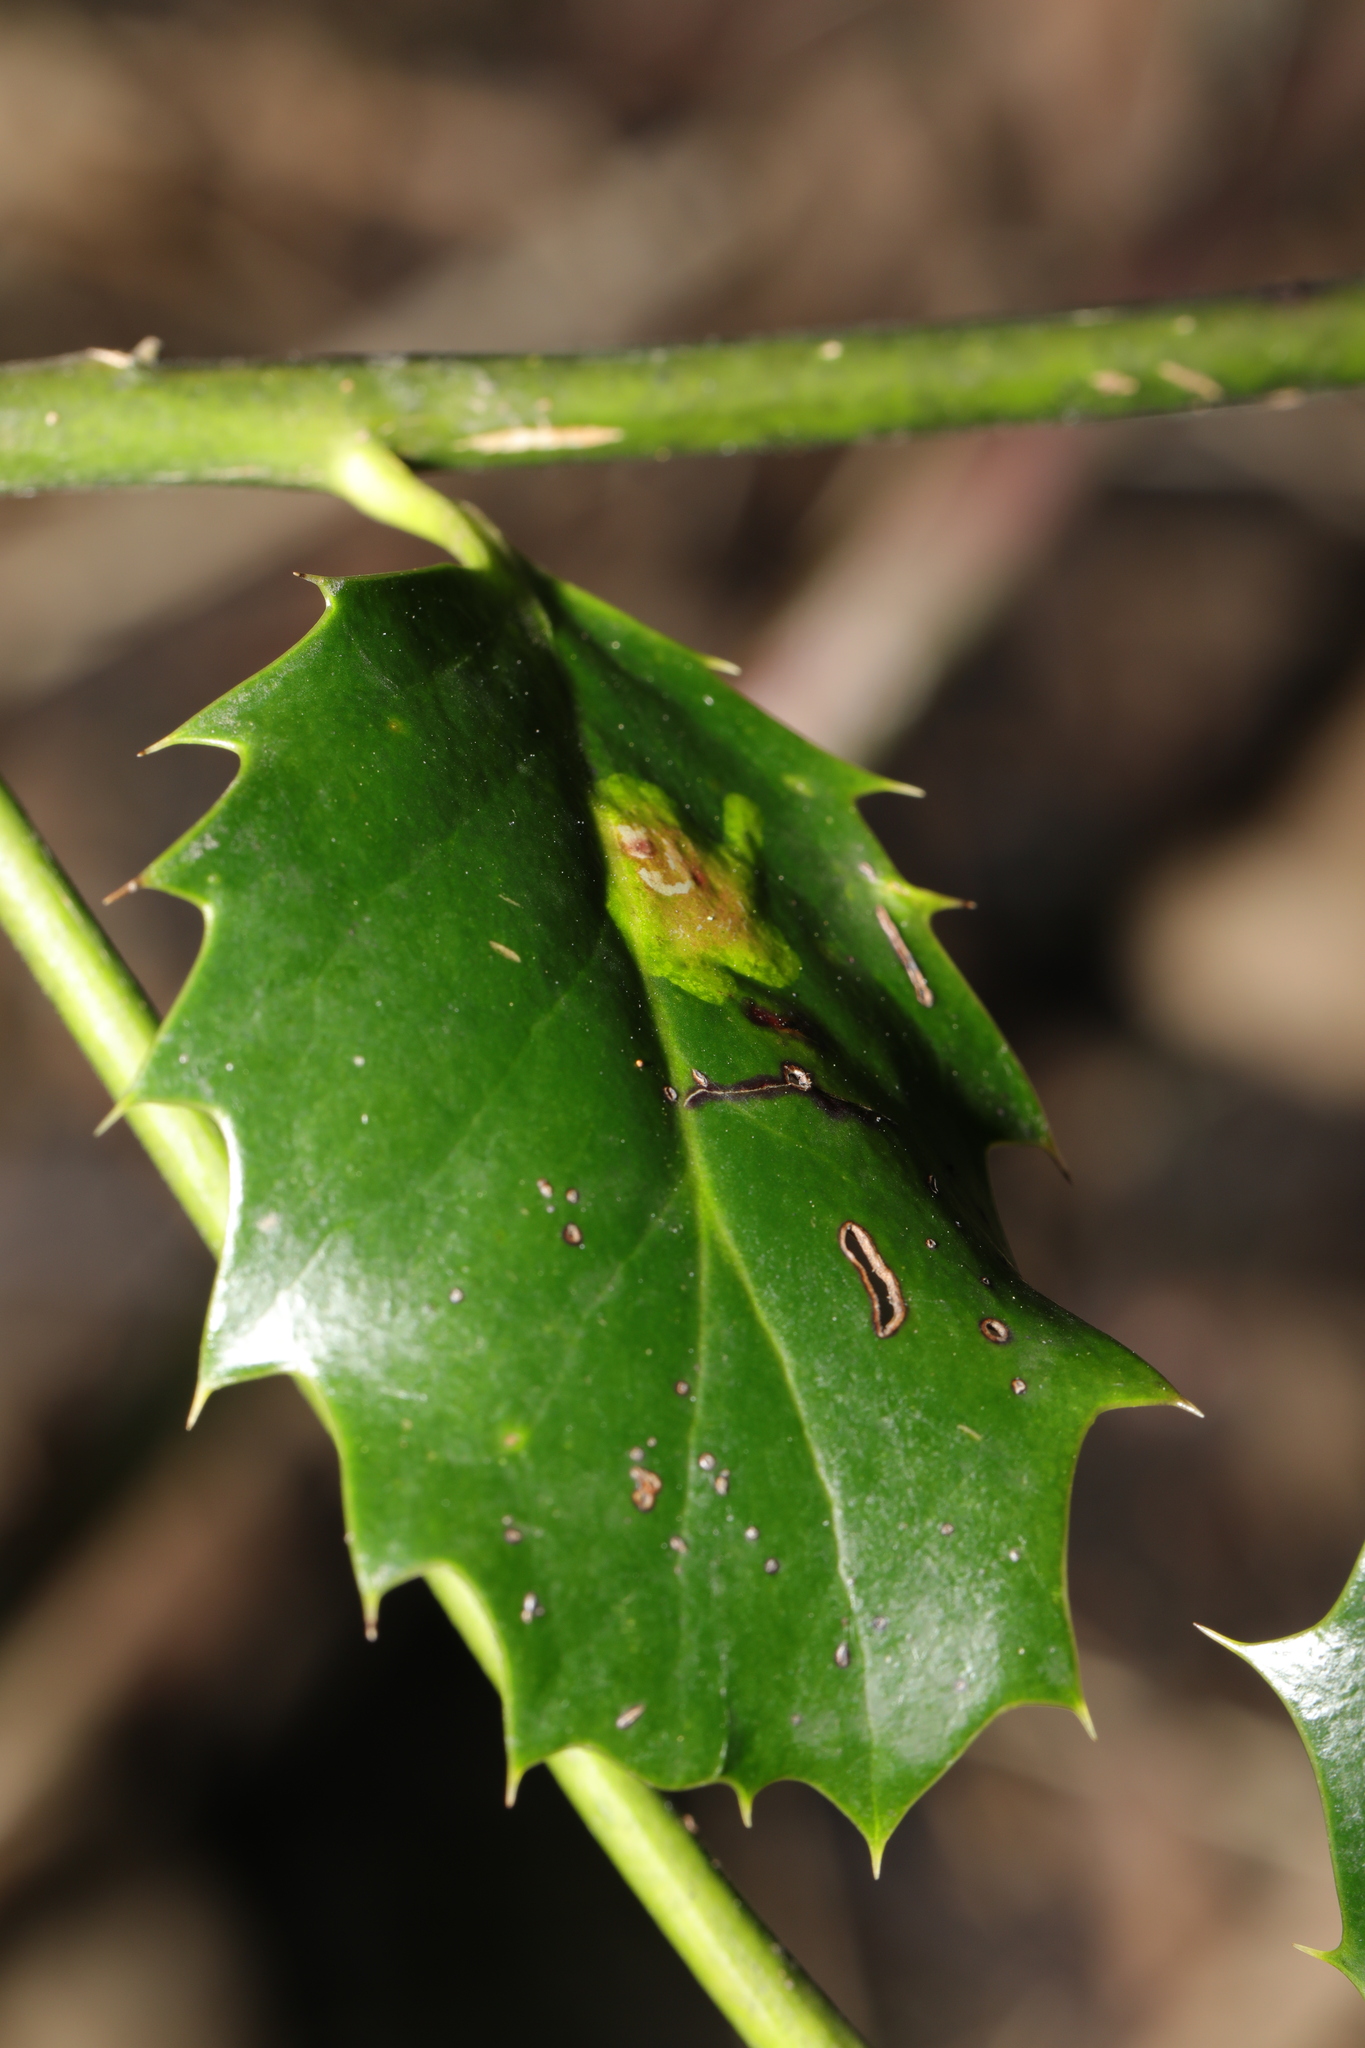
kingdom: Animalia
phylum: Arthropoda
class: Insecta
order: Diptera
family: Agromyzidae
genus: Phytomyza
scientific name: Phytomyza ilicis
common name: Holly leafminer
